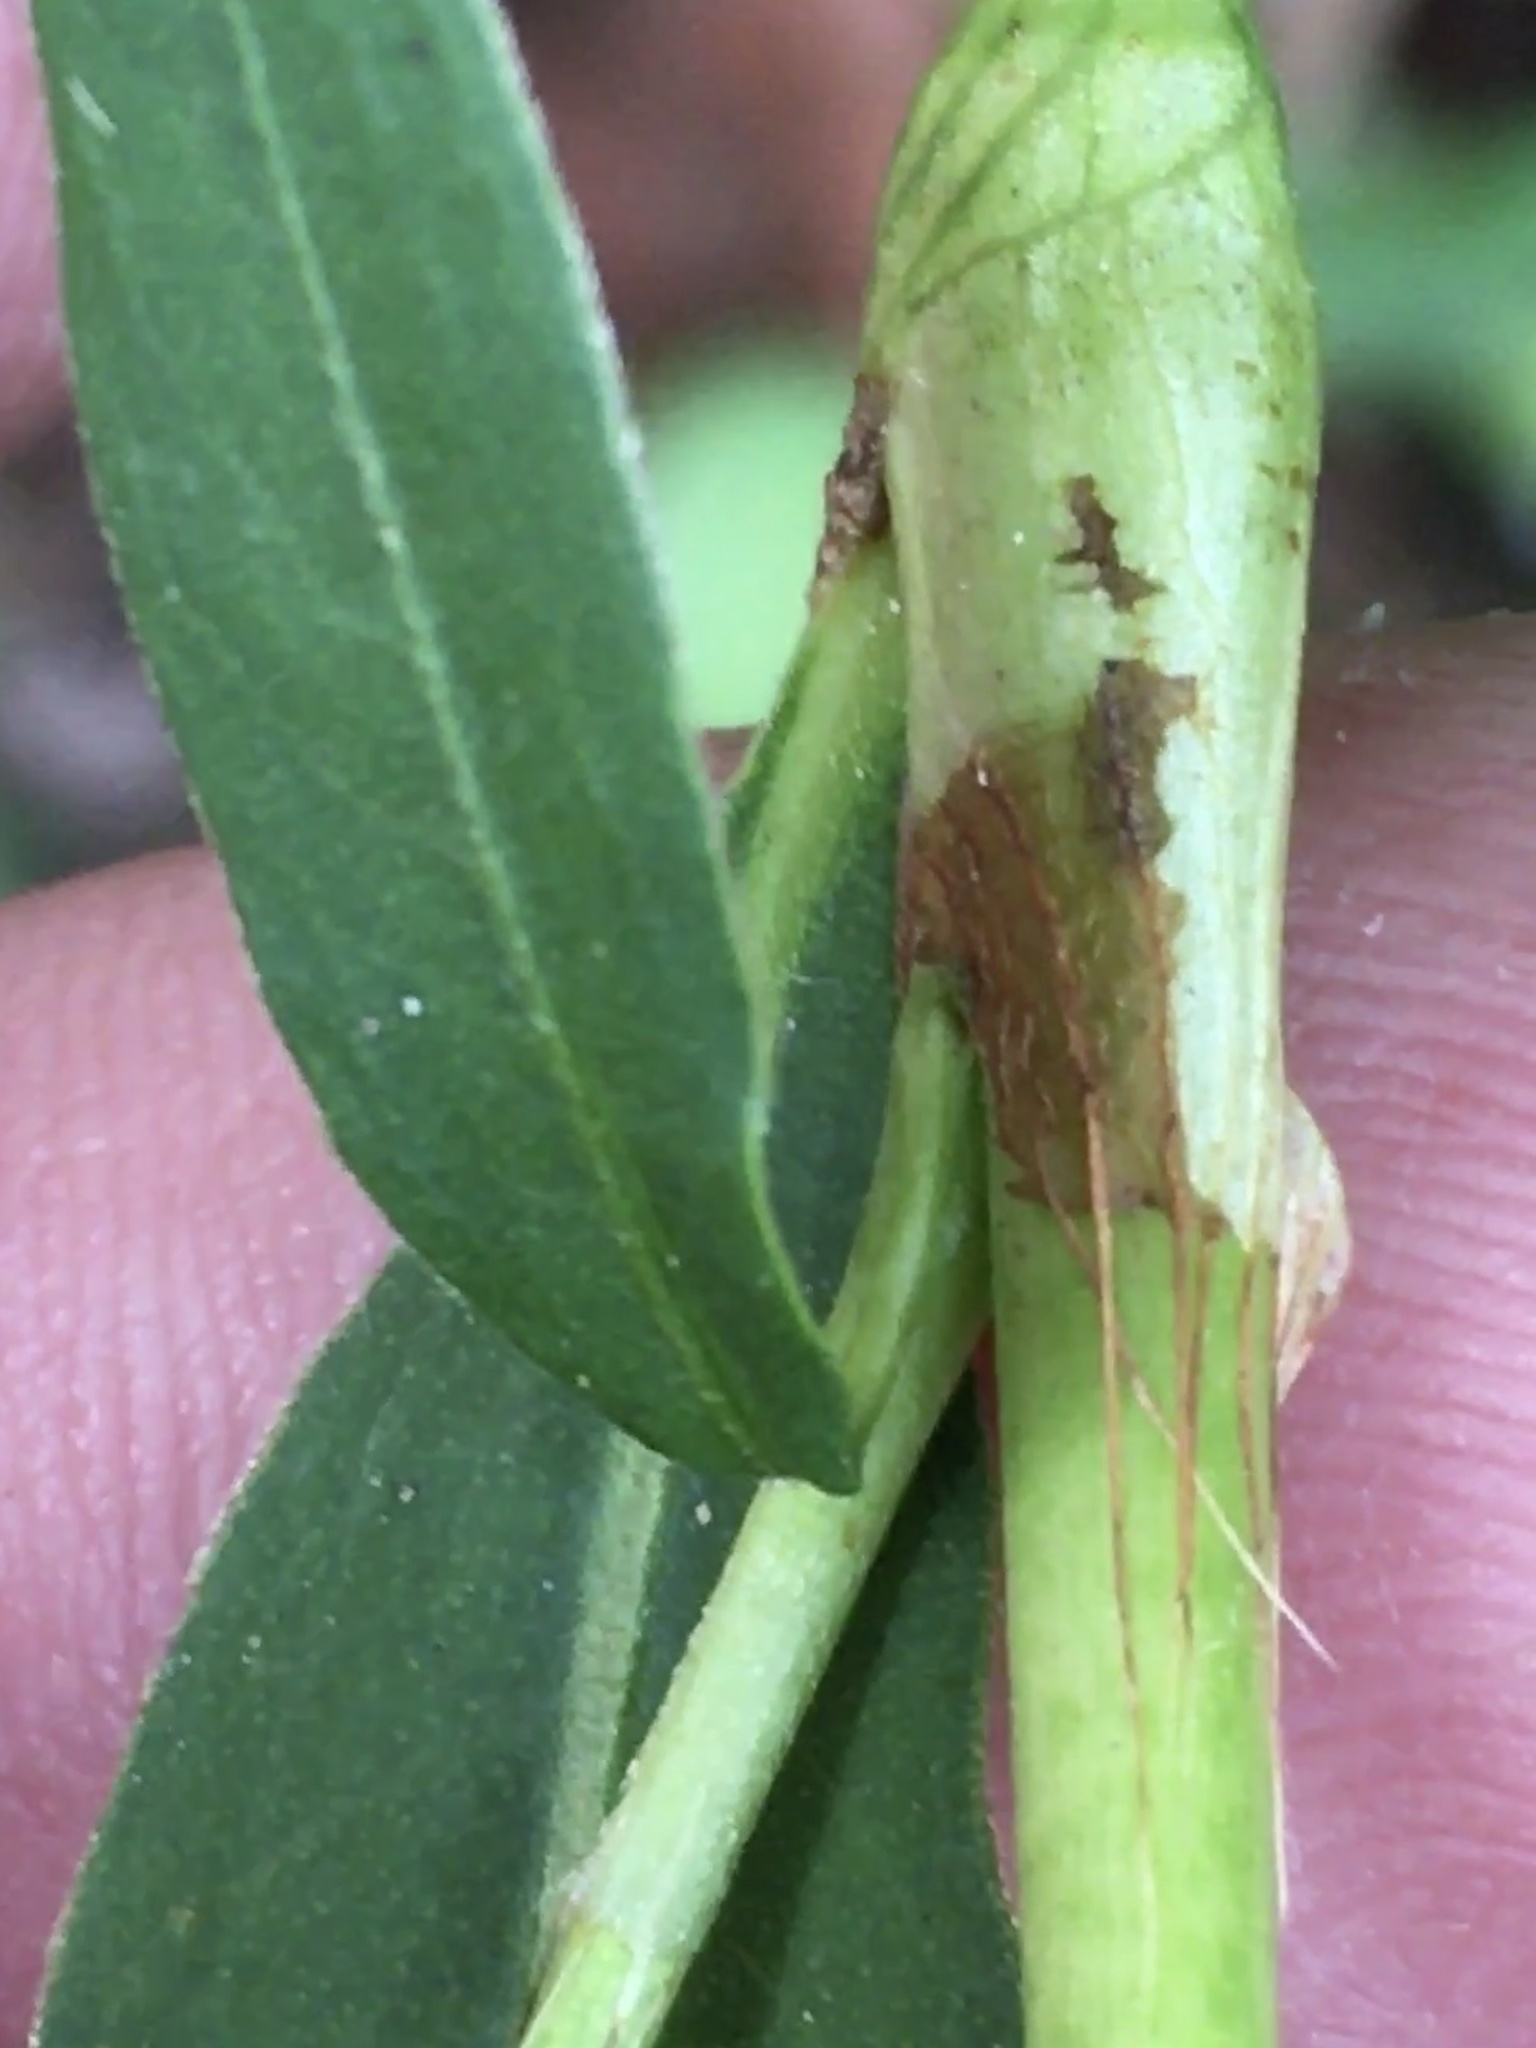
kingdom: Plantae
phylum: Tracheophyta
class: Magnoliopsida
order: Caryophyllales
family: Polygonaceae
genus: Persicaria
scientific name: Persicaria punctata
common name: Dotted smartweed
